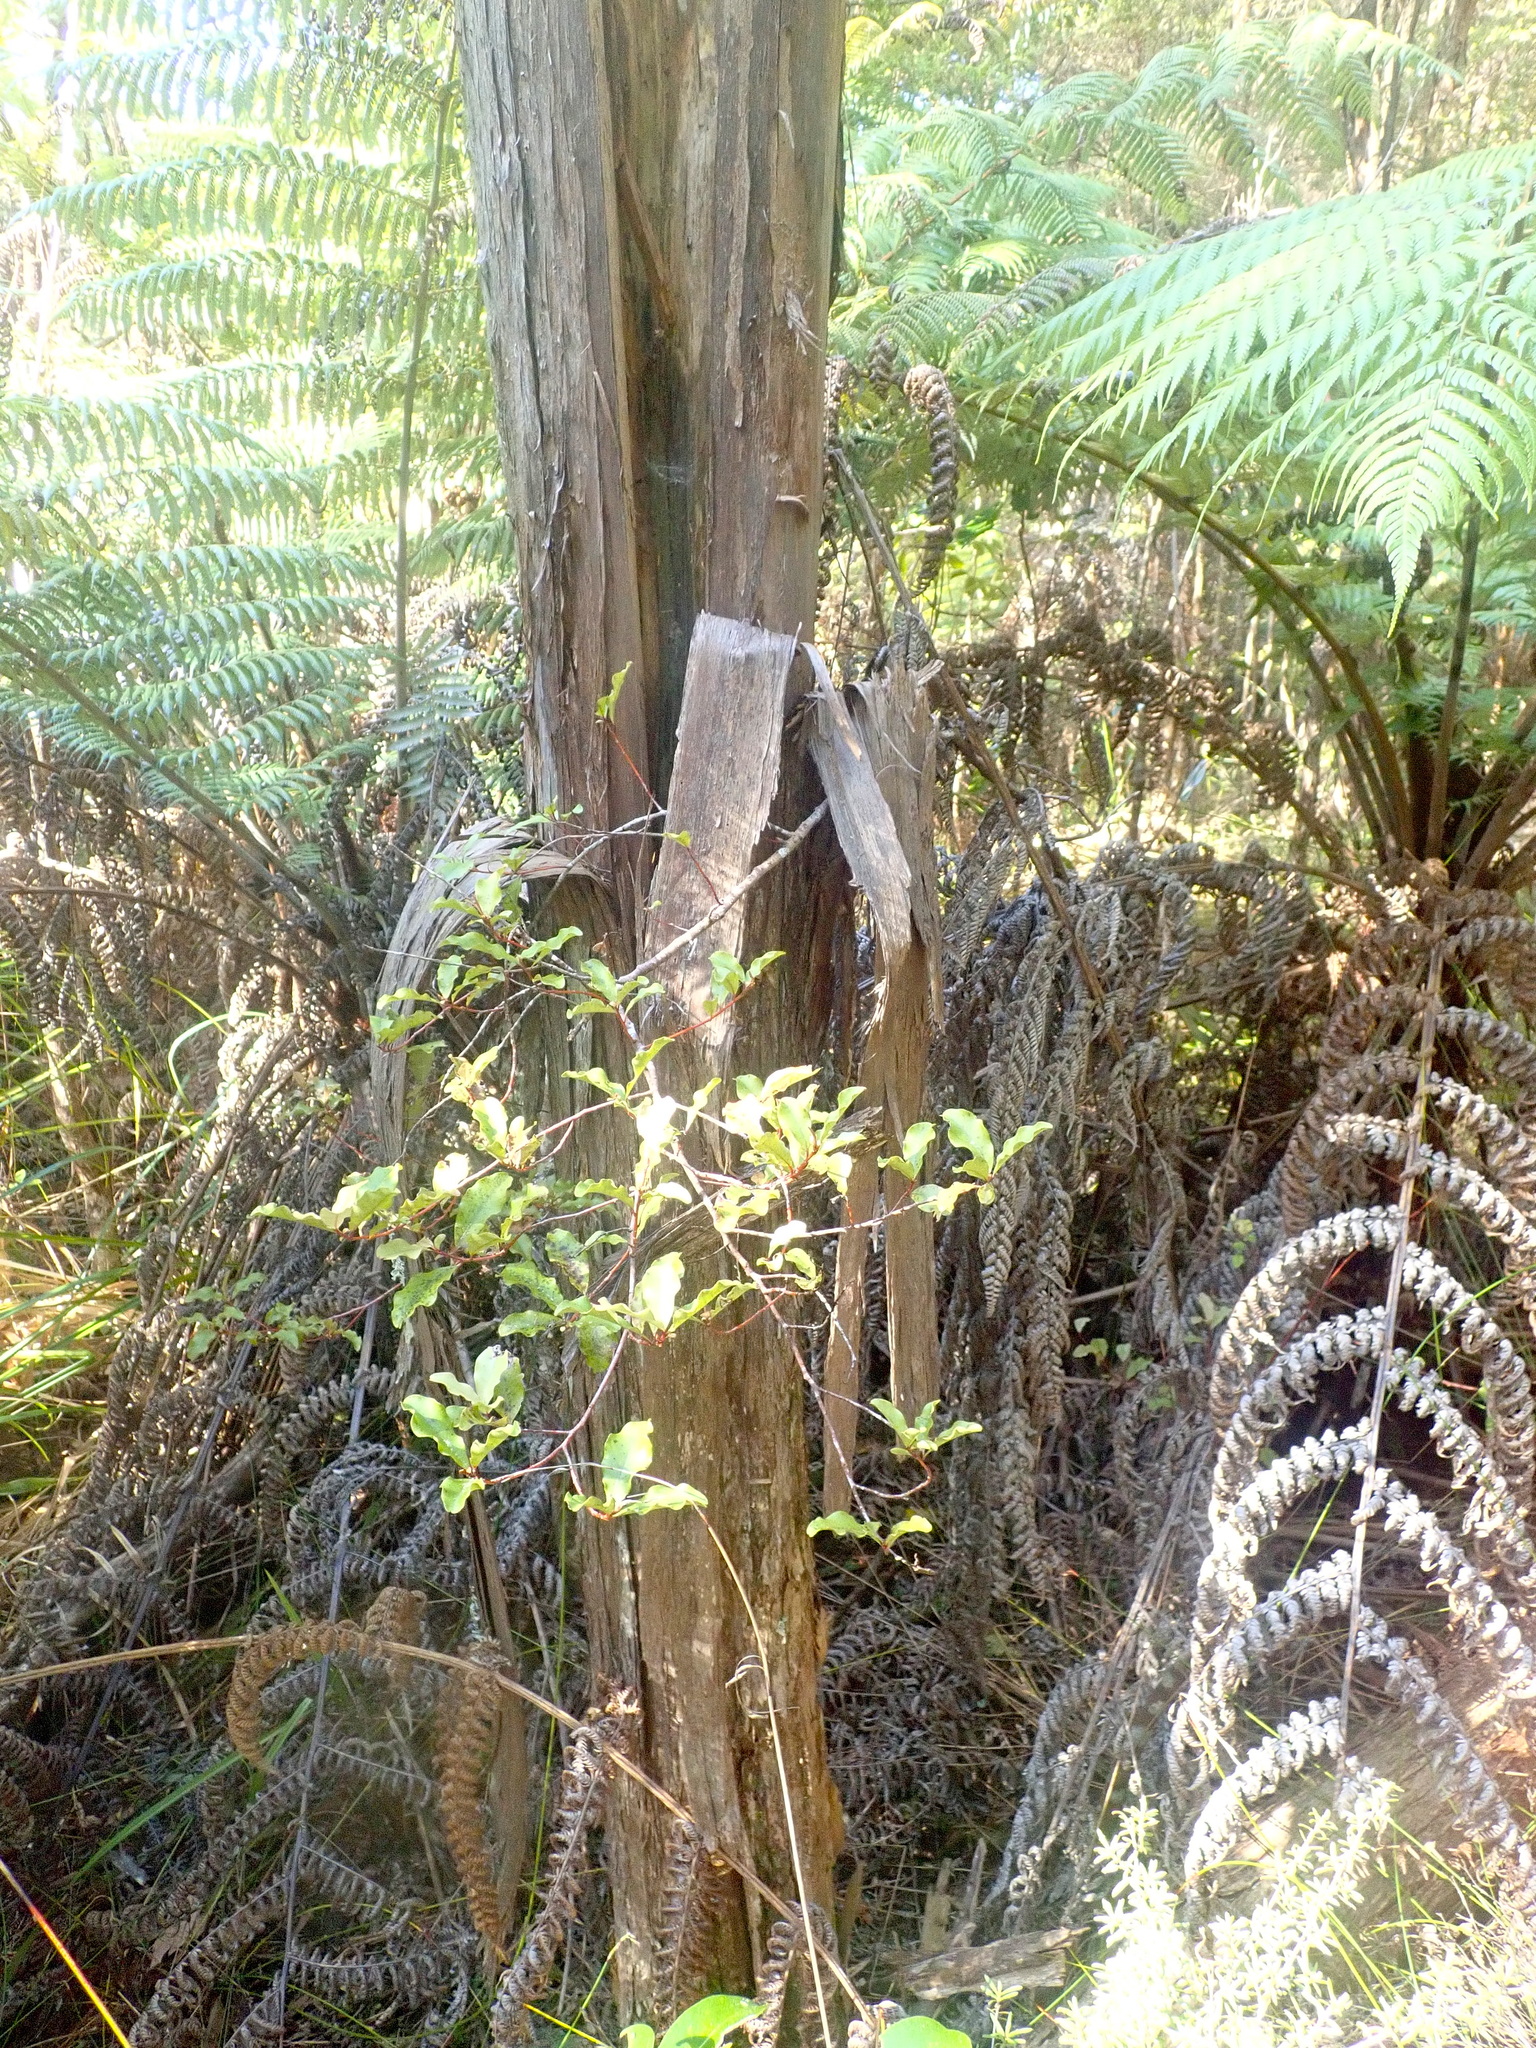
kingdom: Plantae
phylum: Tracheophyta
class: Magnoliopsida
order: Ericales
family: Primulaceae
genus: Myrsine
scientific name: Myrsine australis
